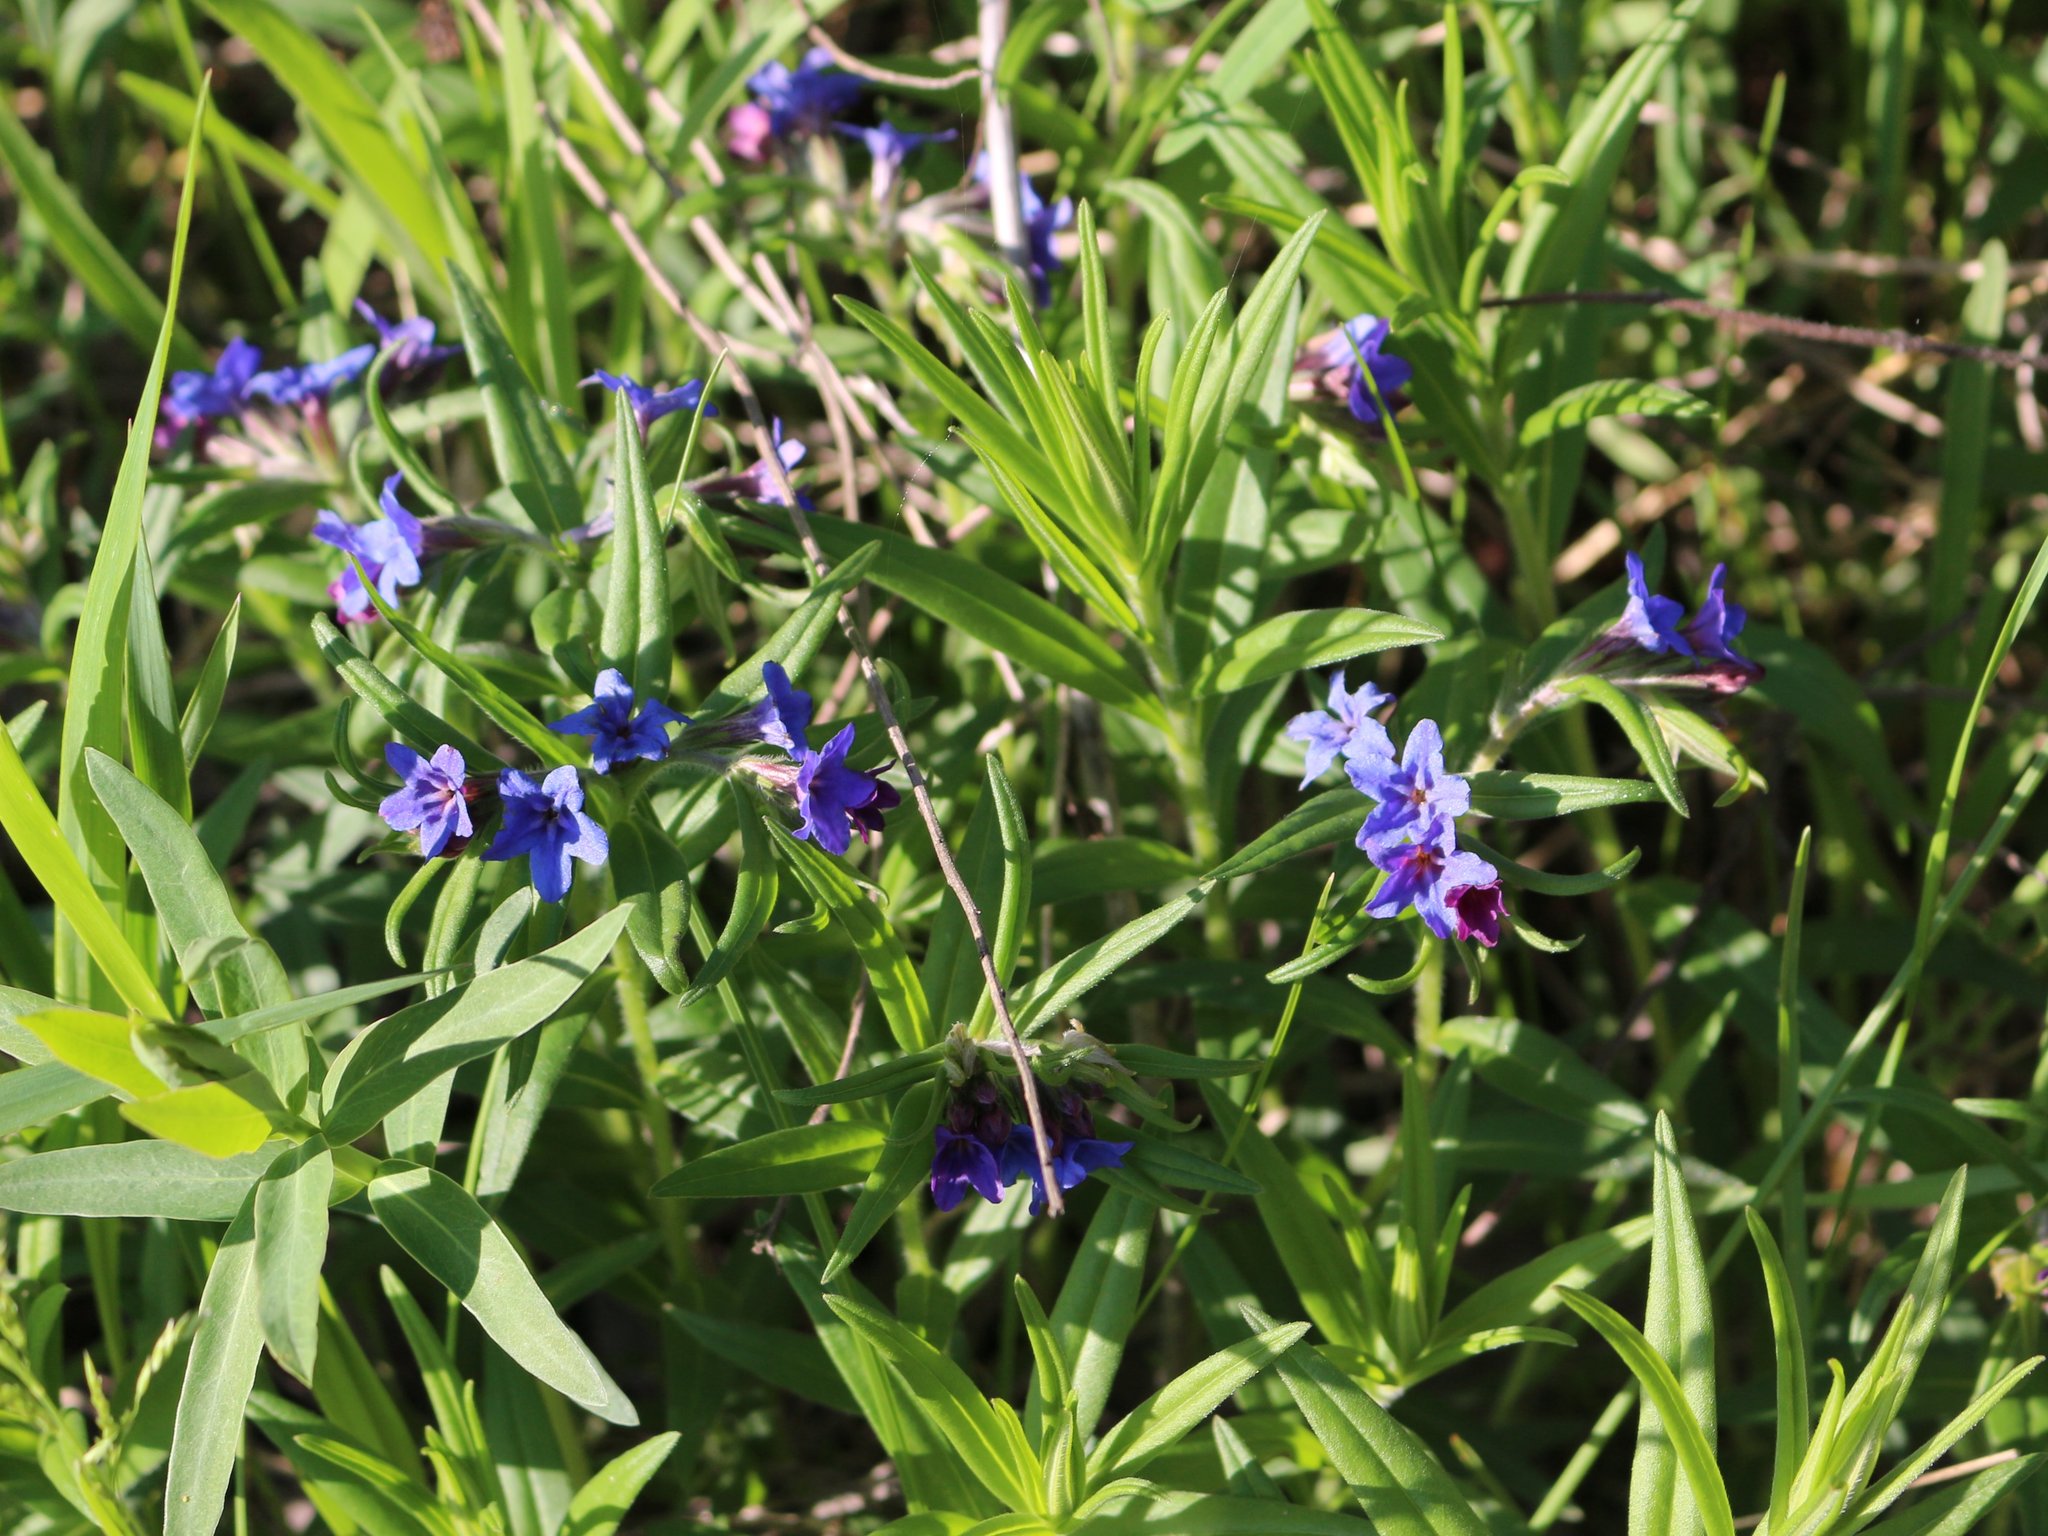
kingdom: Plantae
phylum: Tracheophyta
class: Magnoliopsida
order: Boraginales
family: Boraginaceae
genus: Aegonychon
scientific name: Aegonychon purpurocaeruleum
